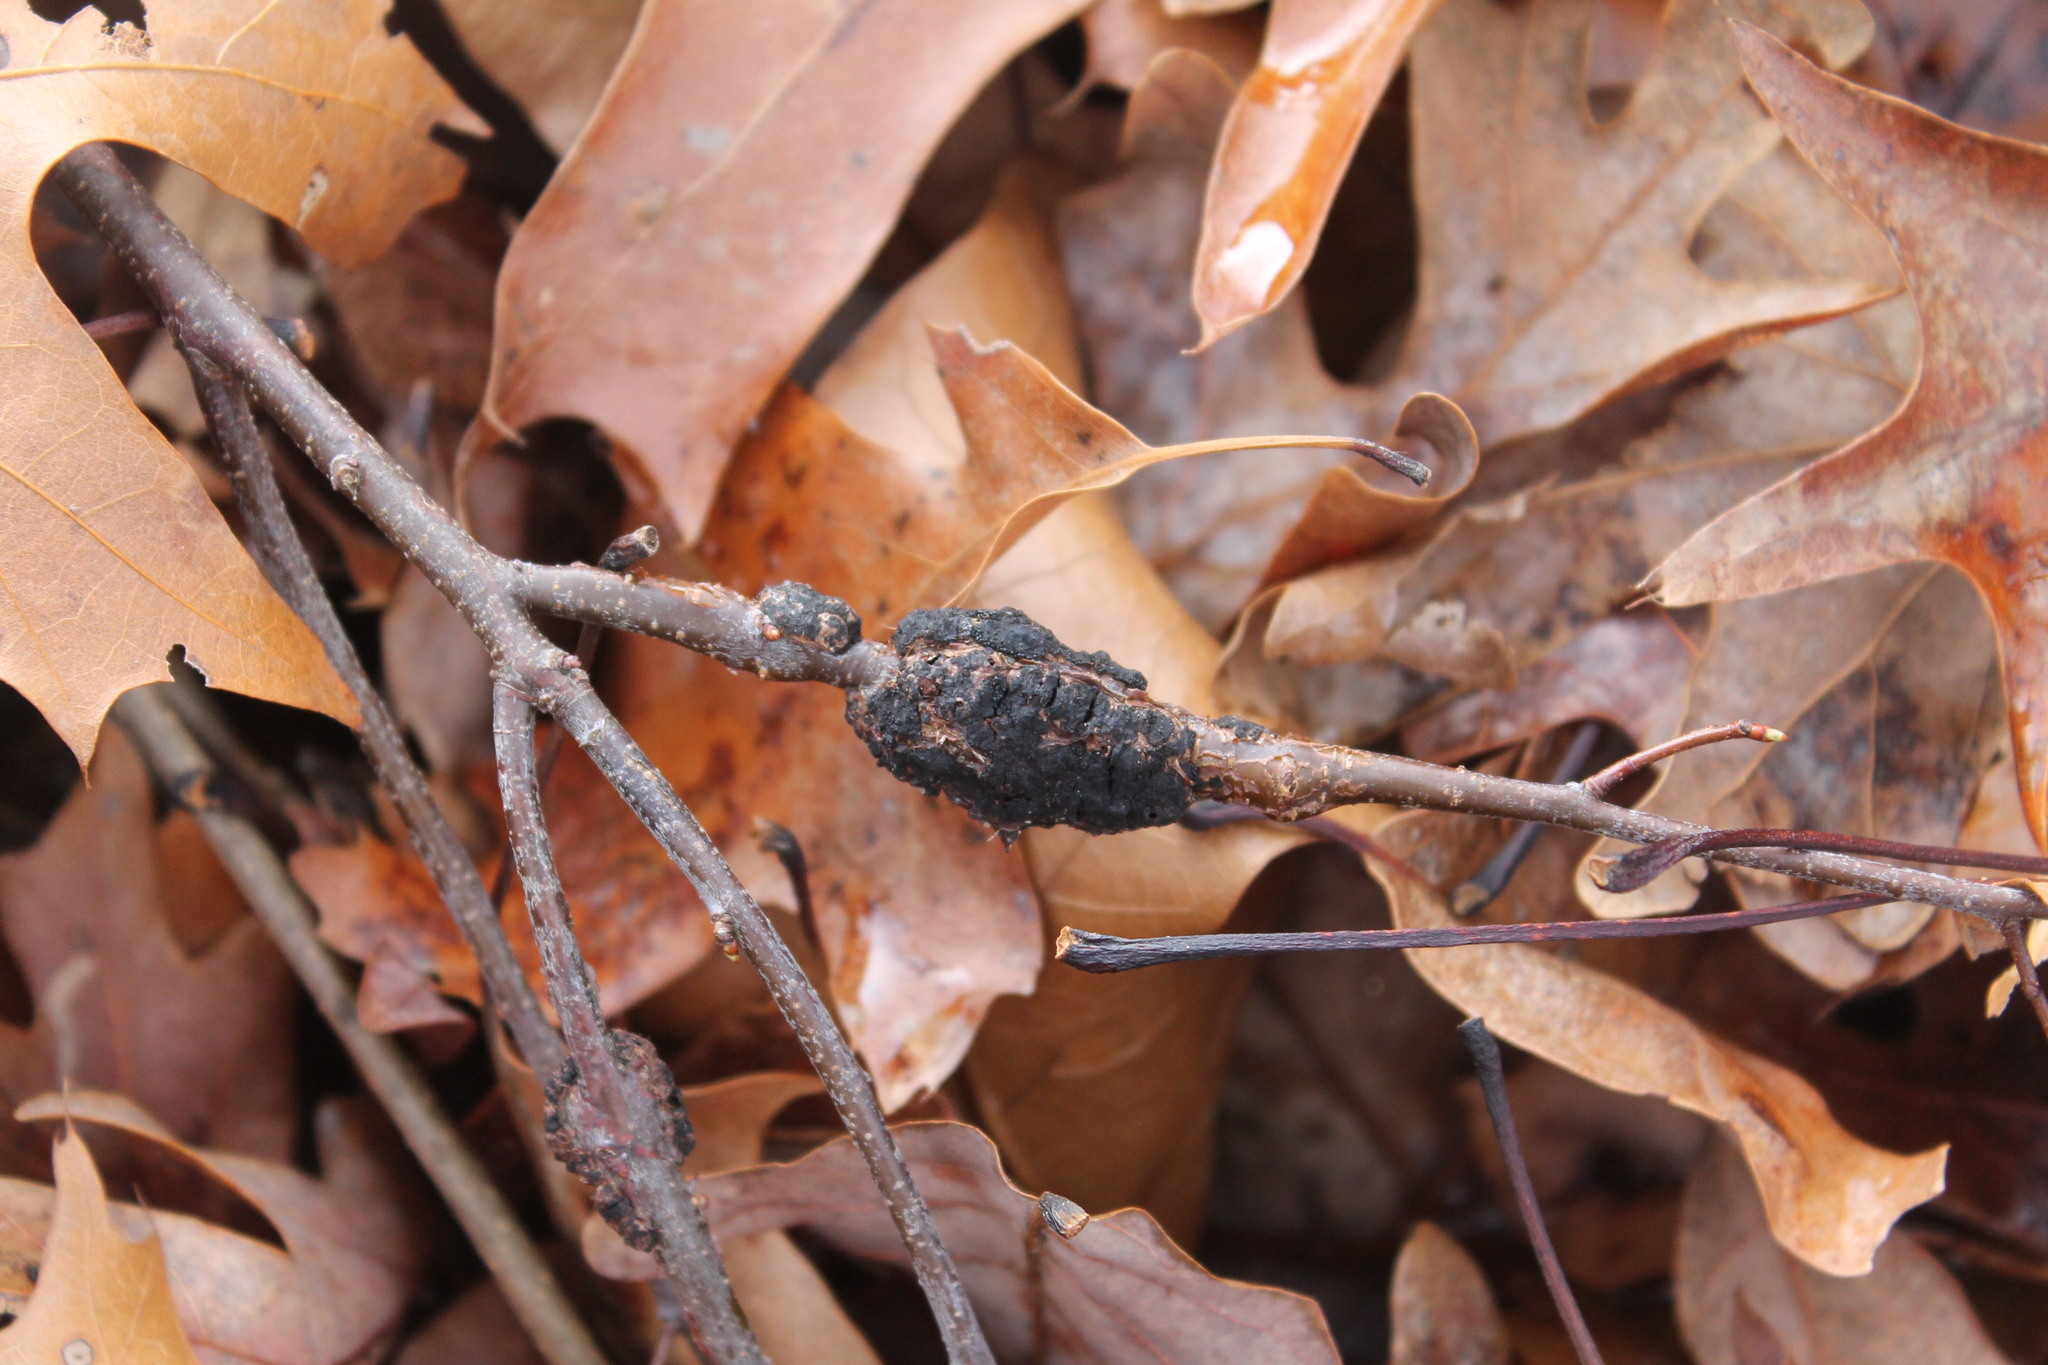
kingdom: Fungi
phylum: Ascomycota
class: Dothideomycetes
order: Venturiales
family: Venturiaceae
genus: Apiosporina
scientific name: Apiosporina morbosa
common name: Black knot
